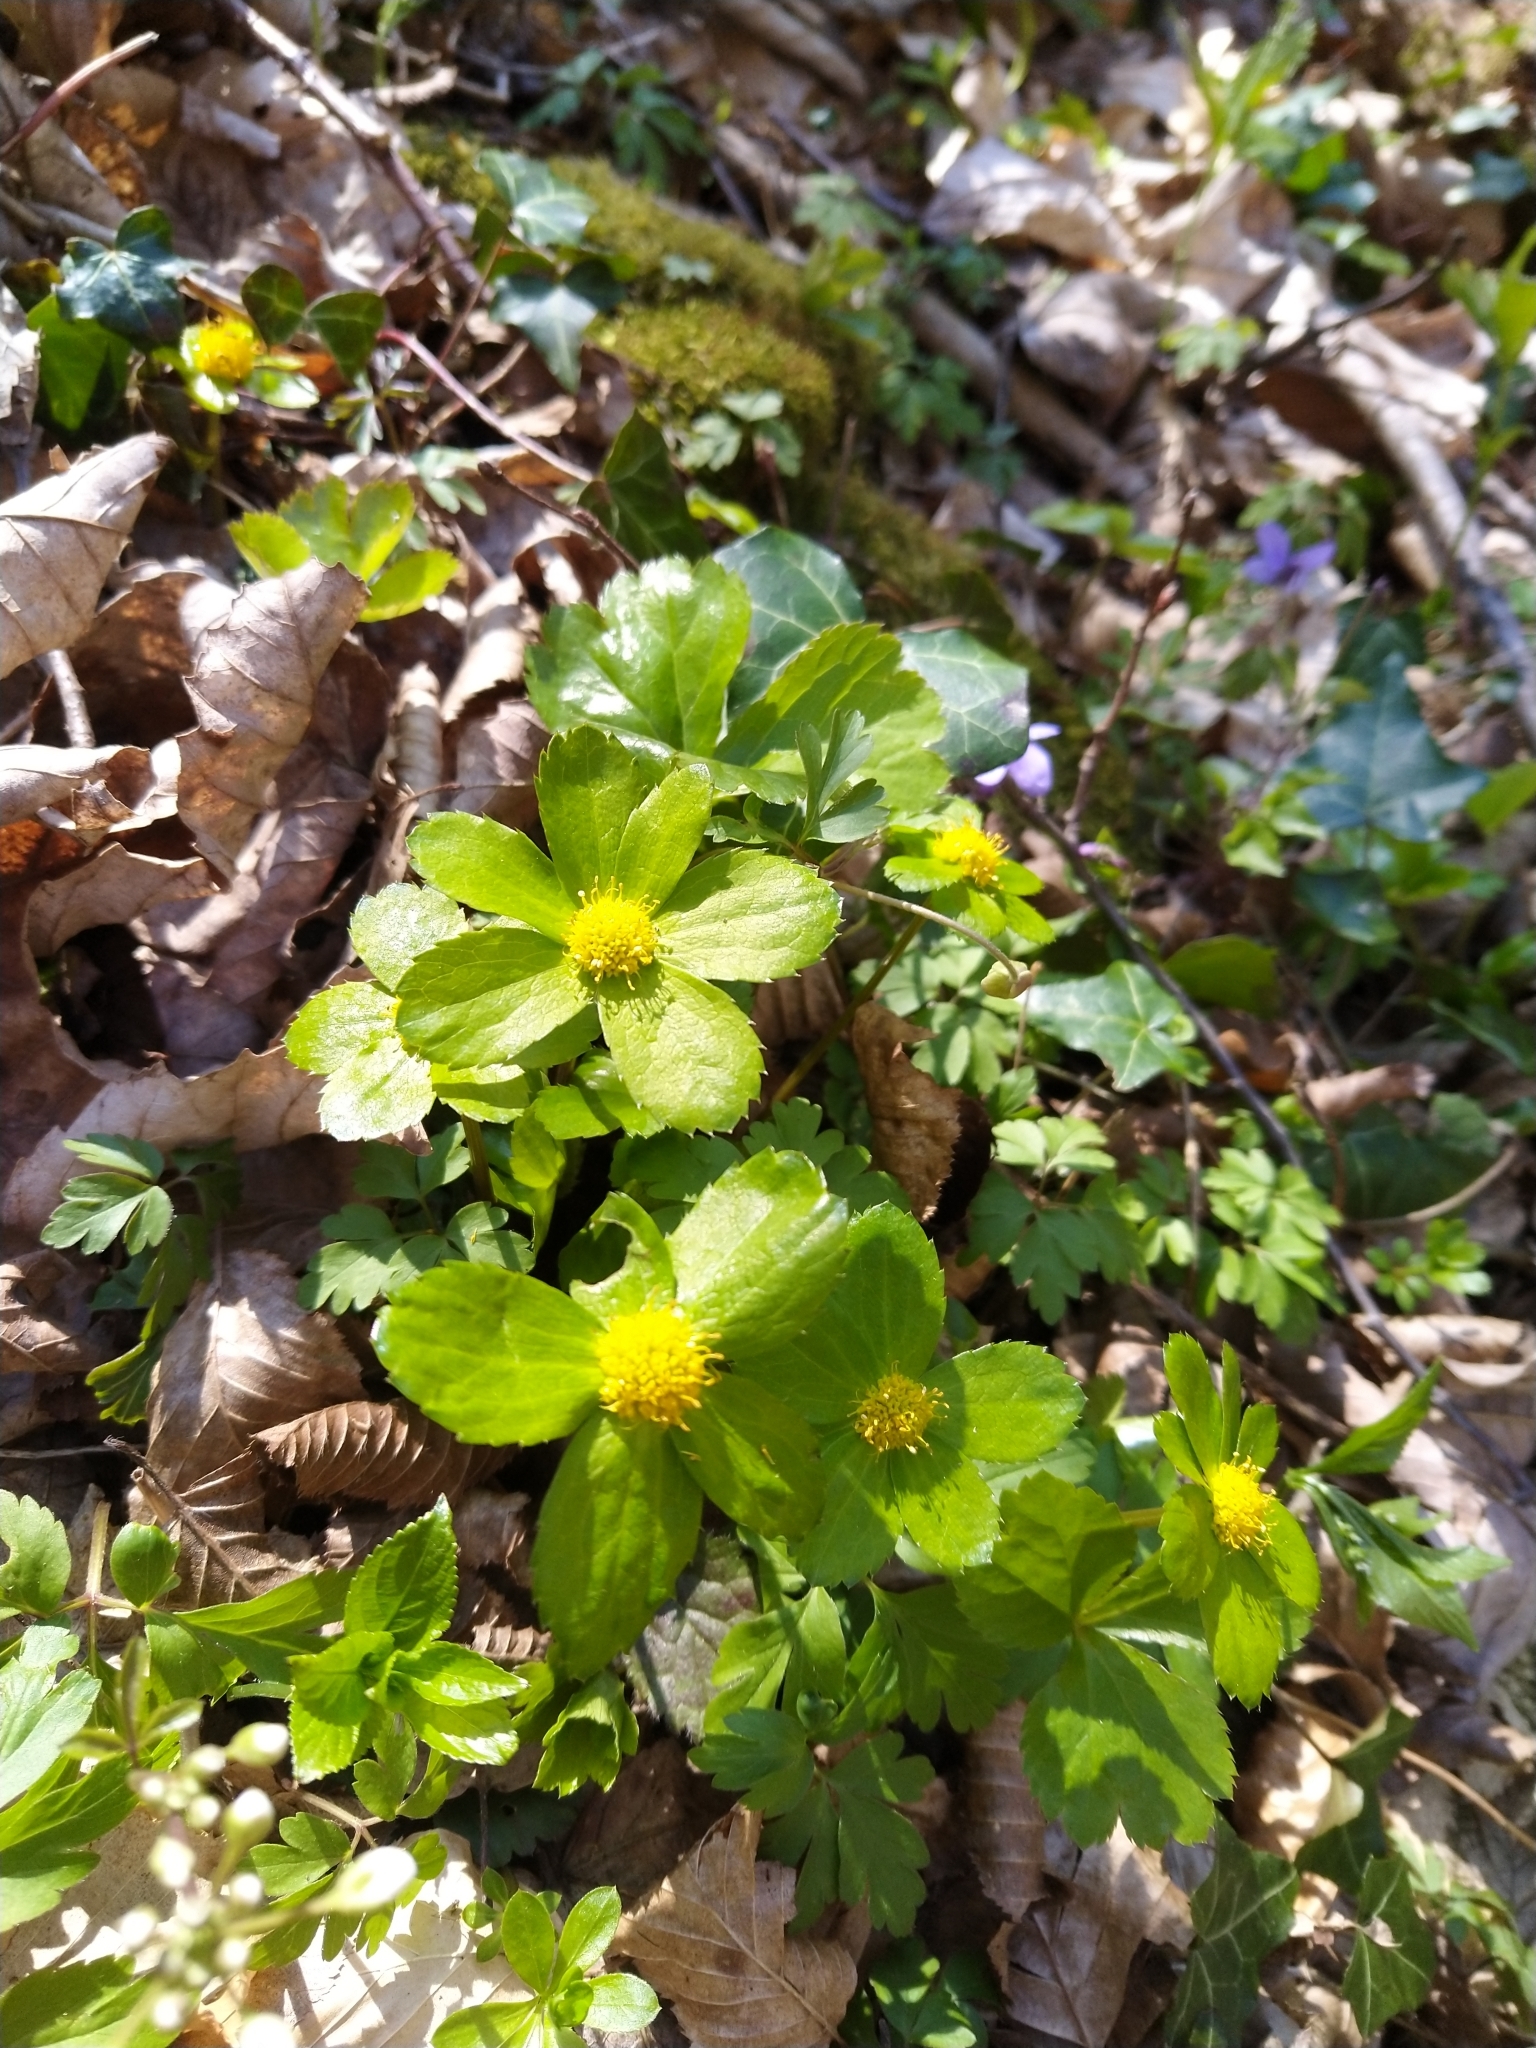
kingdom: Plantae
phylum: Tracheophyta
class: Magnoliopsida
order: Apiales
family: Apiaceae
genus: Sanicula
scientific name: Sanicula epipactis
